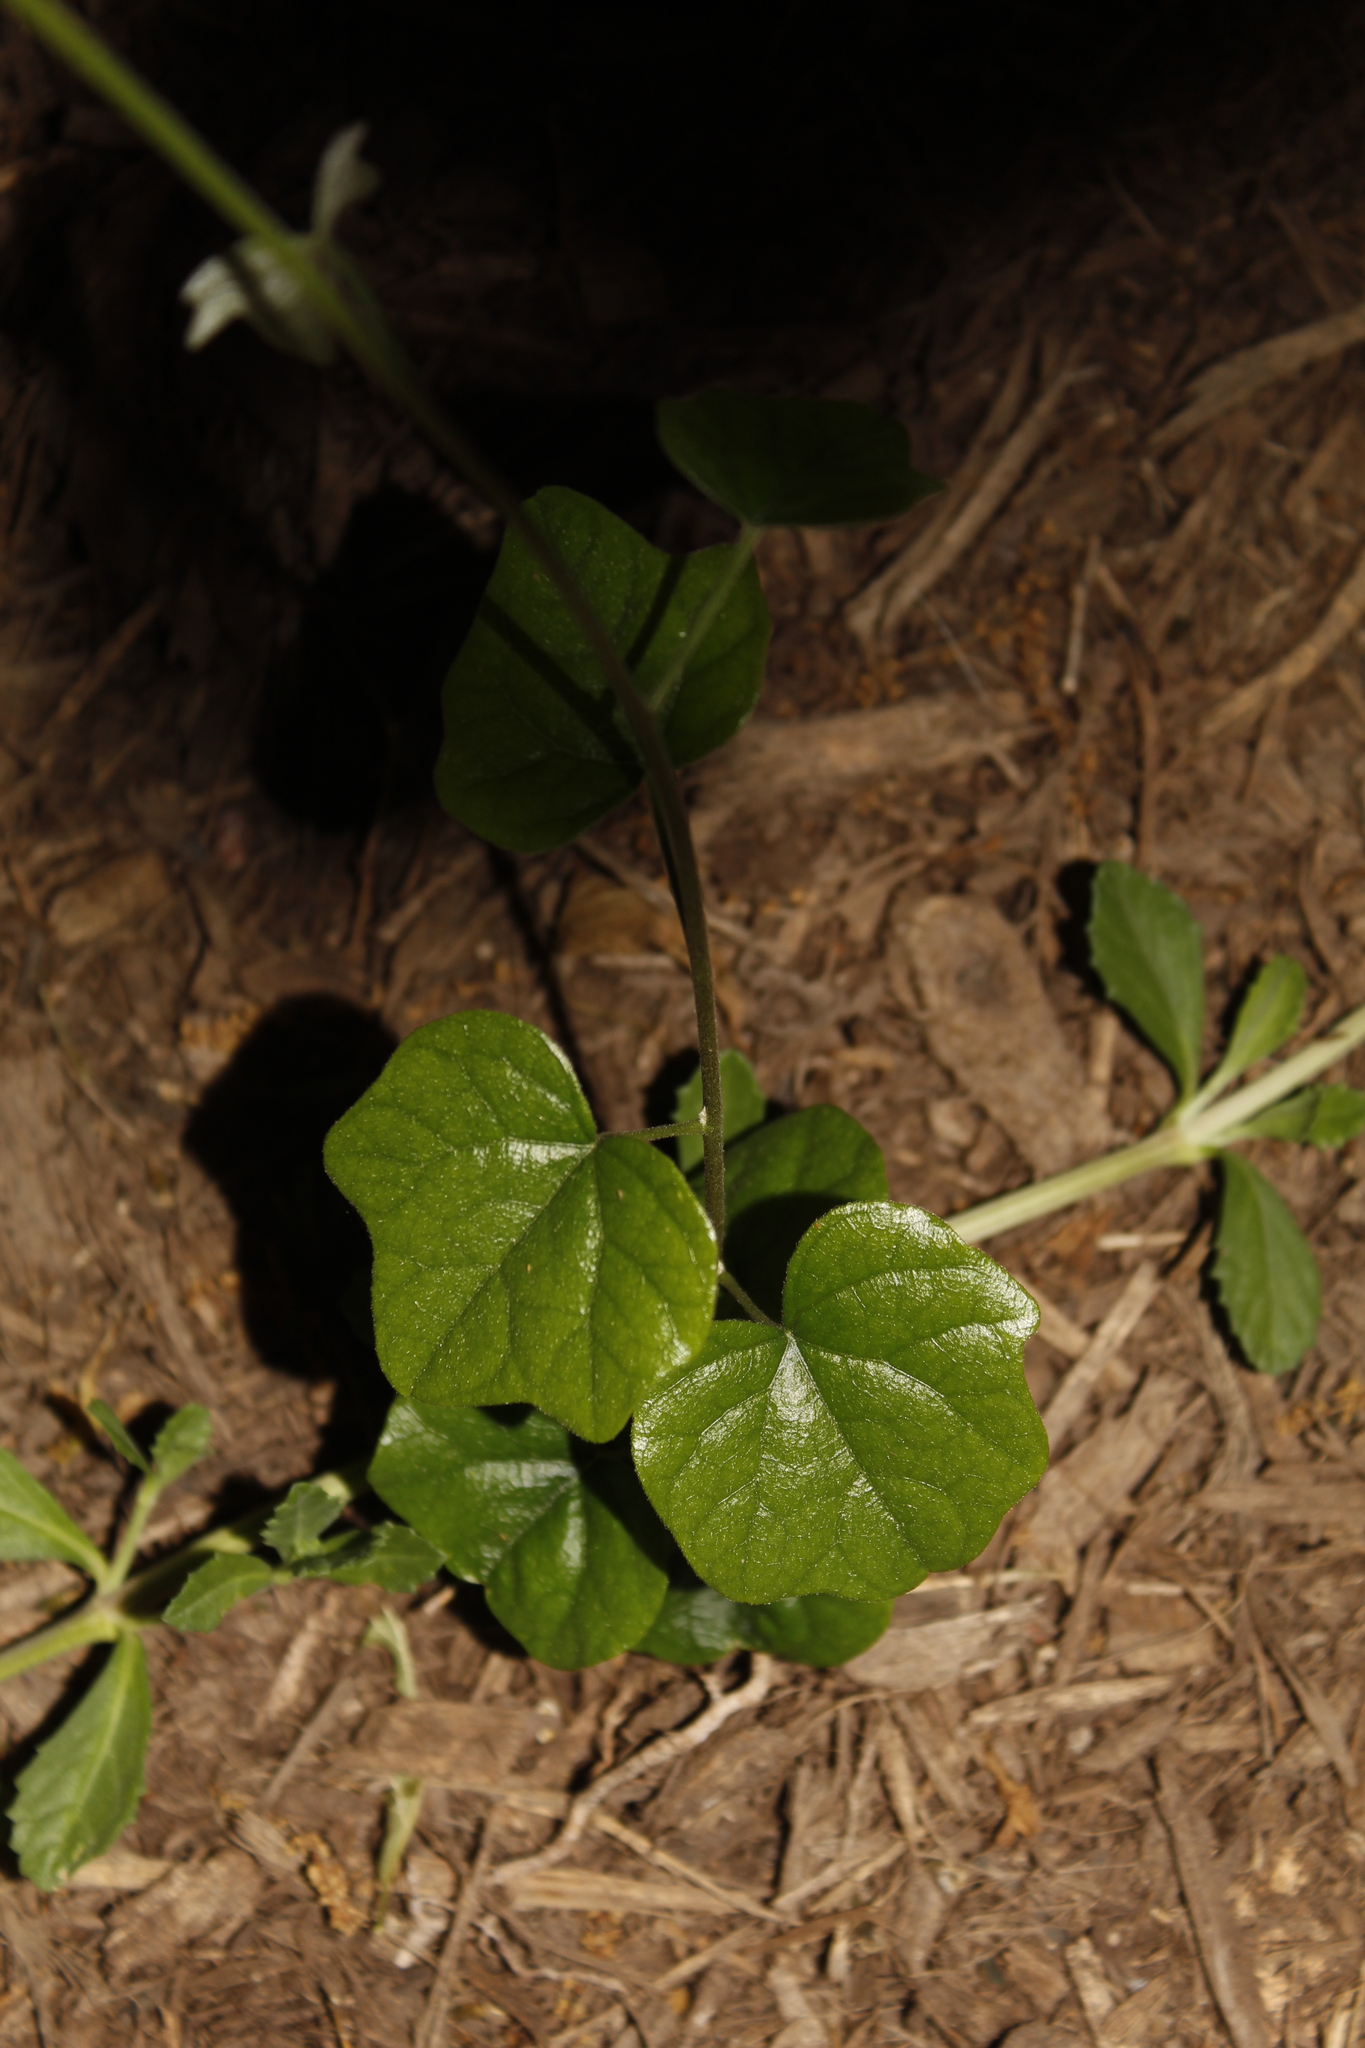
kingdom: Plantae
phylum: Tracheophyta
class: Magnoliopsida
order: Ranunculales
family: Menispermaceae
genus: Cocculus
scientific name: Cocculus carolinus
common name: Carolina moonseed
